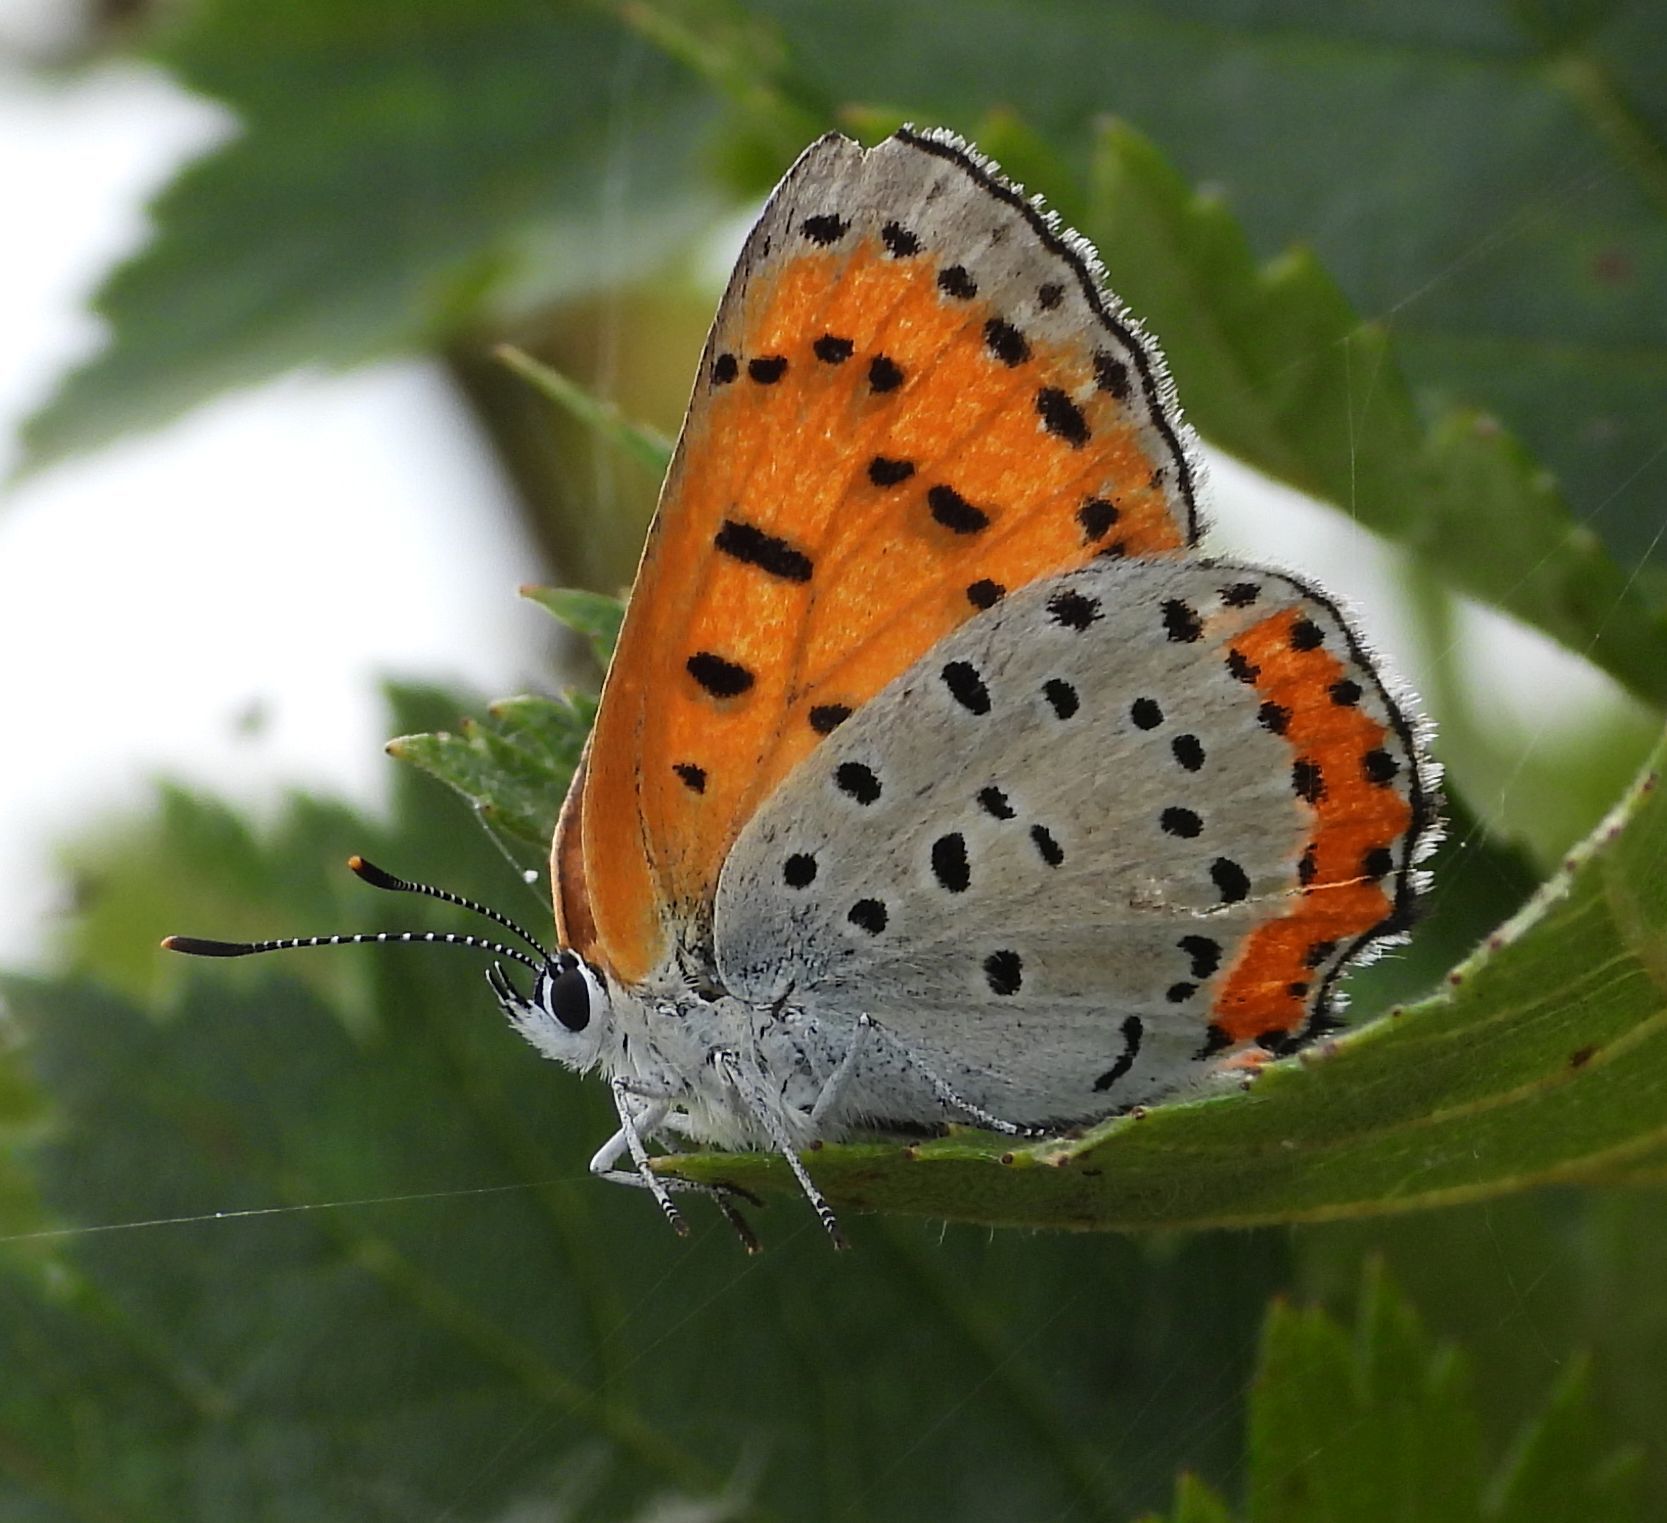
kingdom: Animalia
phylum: Arthropoda
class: Insecta
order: Lepidoptera
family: Lycaenidae
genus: Tharsalea
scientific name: Tharsalea hyllus
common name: Bronze copper
